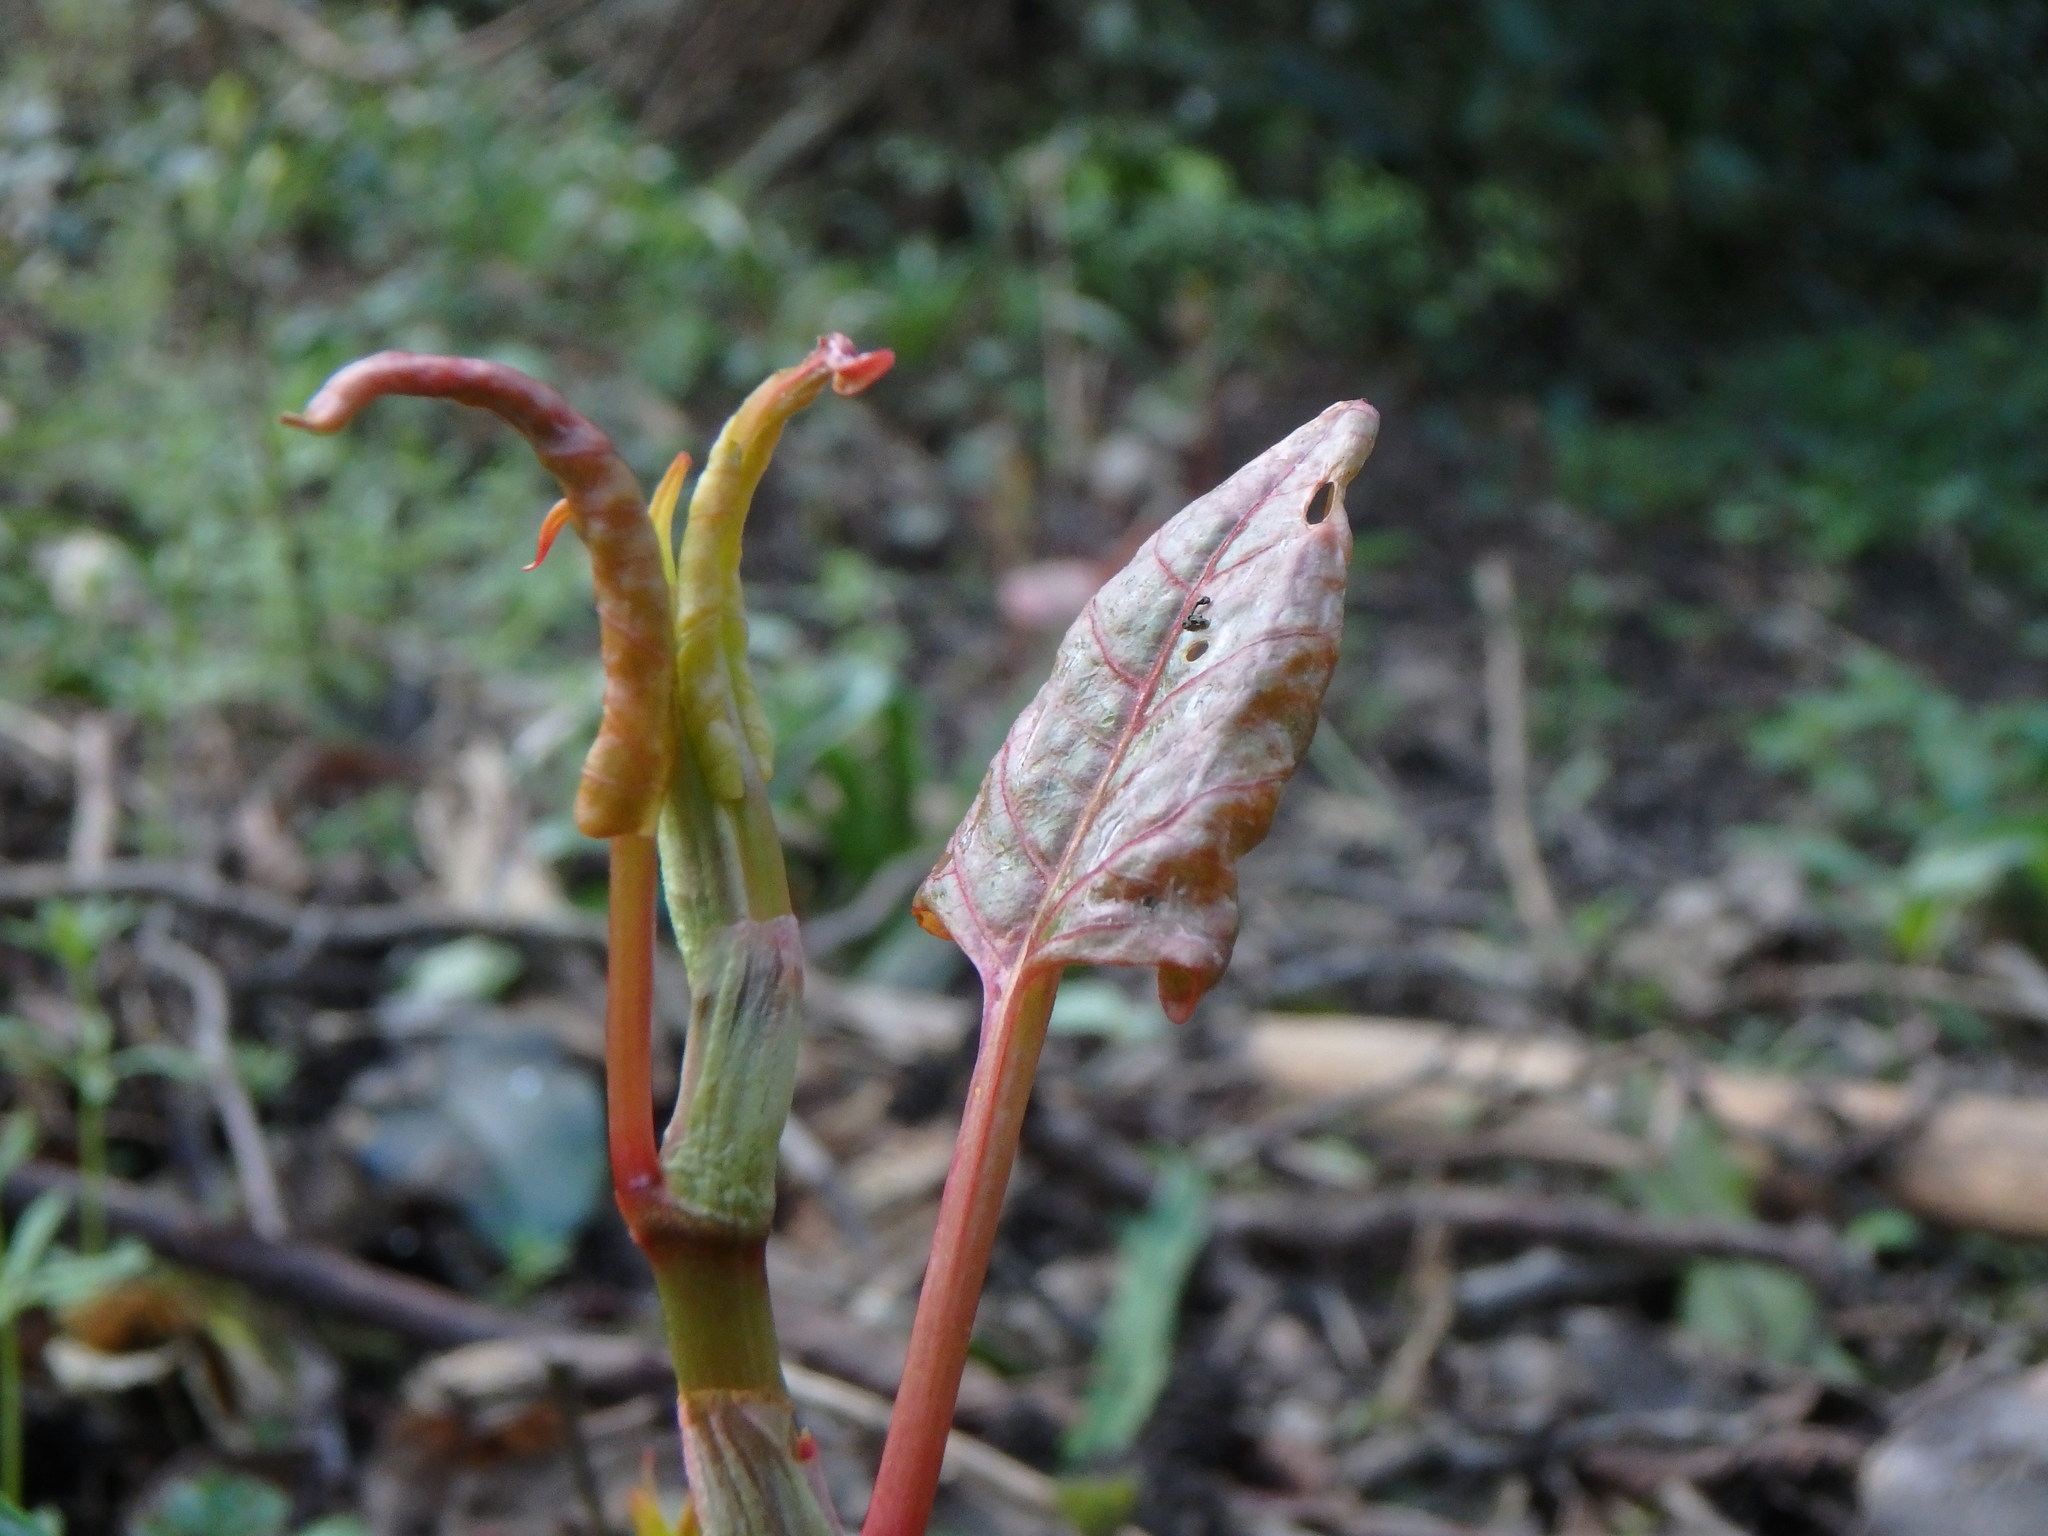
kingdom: Plantae
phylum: Tracheophyta
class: Magnoliopsida
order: Caryophyllales
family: Polygonaceae
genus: Reynoutria
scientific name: Reynoutria japonica
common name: Japanese knotweed
